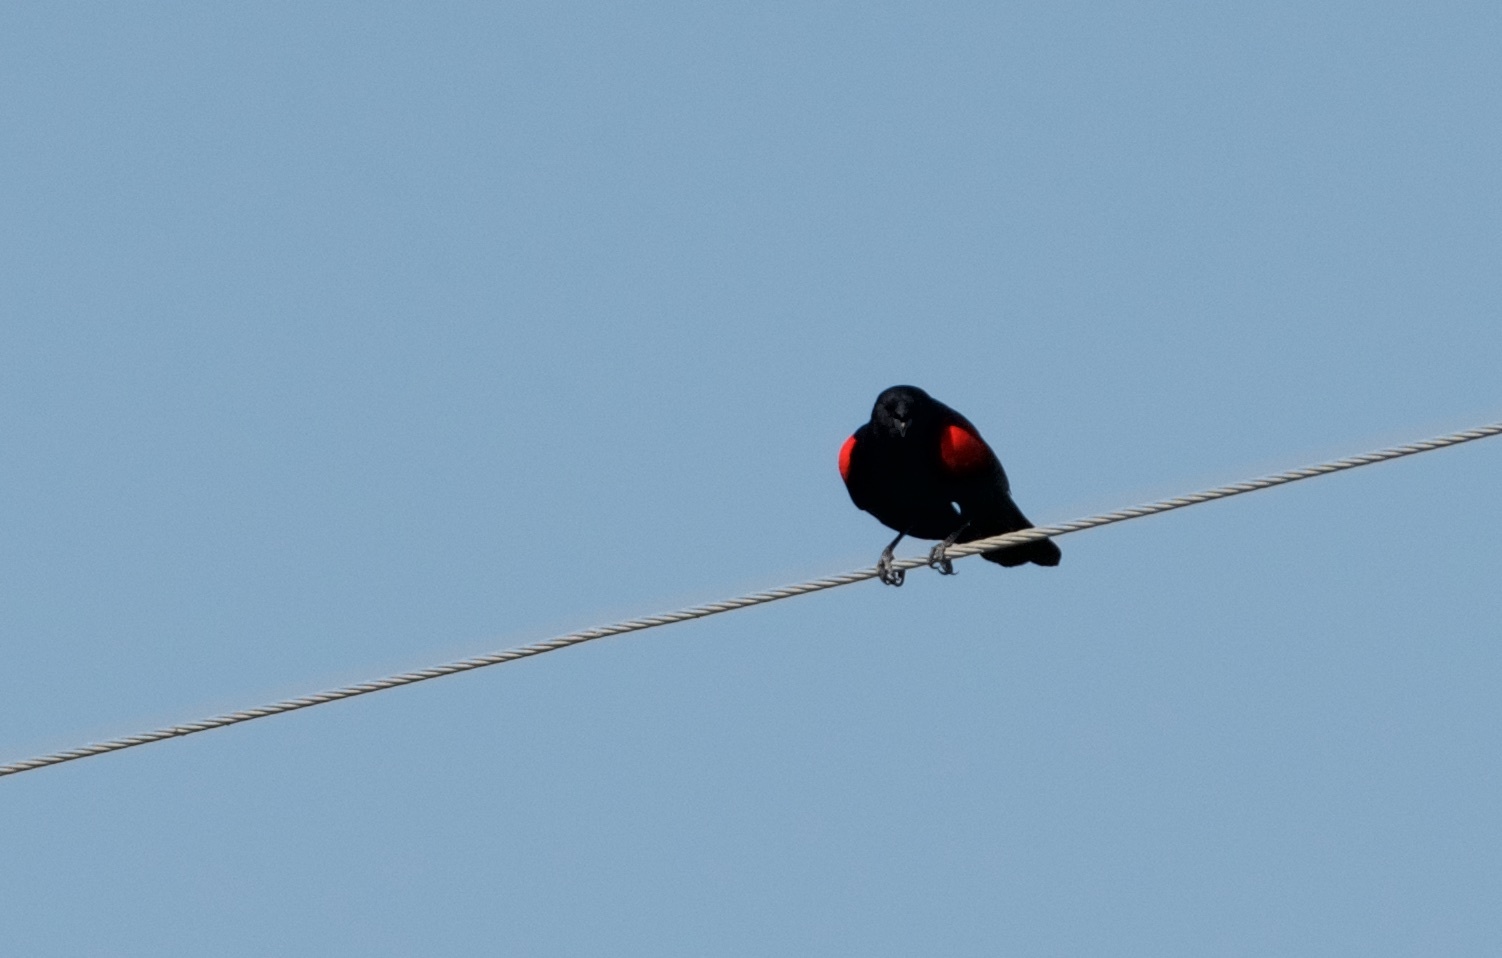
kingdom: Animalia
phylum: Chordata
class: Aves
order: Passeriformes
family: Icteridae
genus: Agelaius
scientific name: Agelaius phoeniceus
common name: Red-winged blackbird
